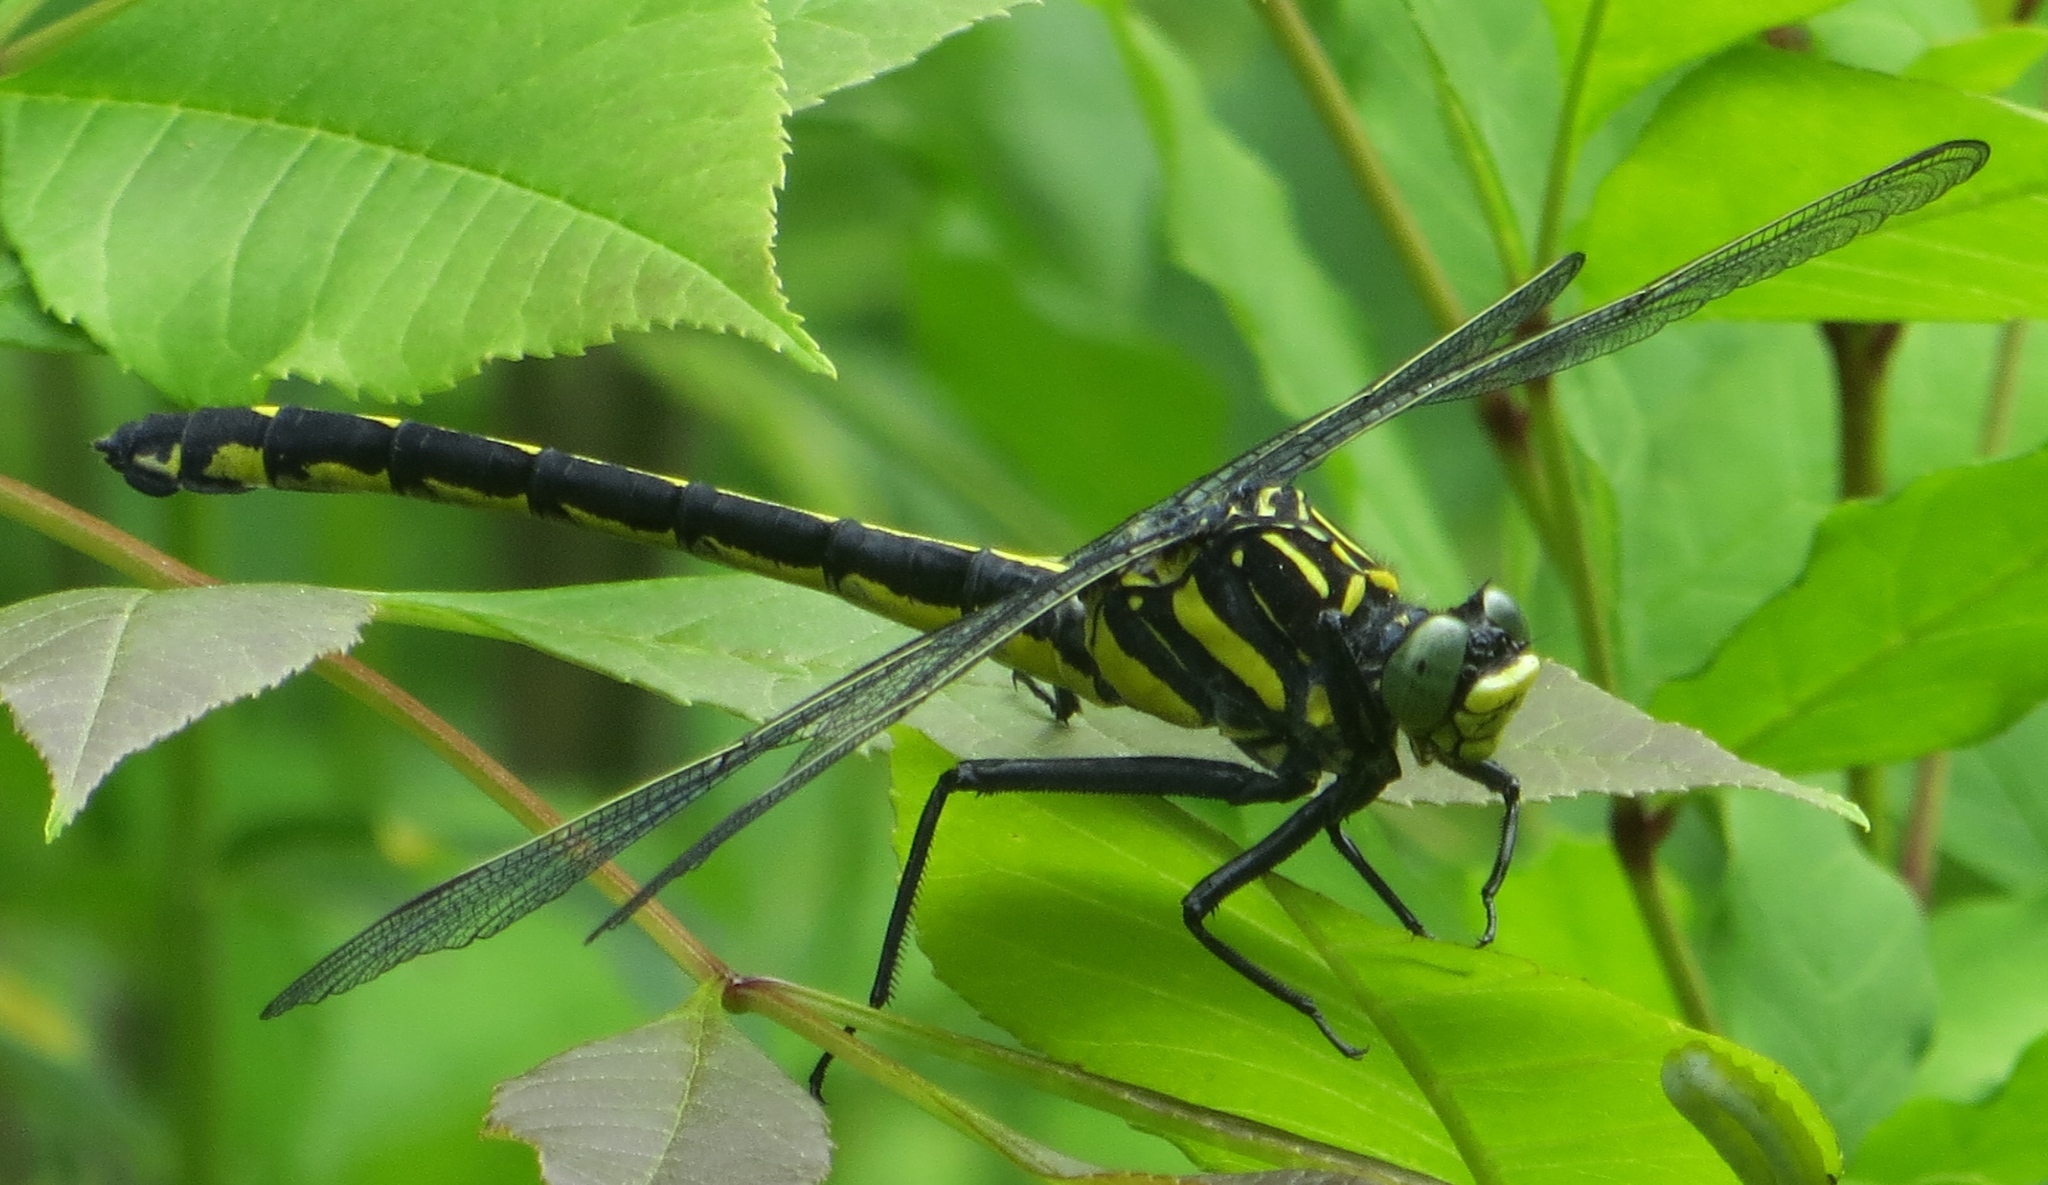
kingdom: Animalia
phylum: Arthropoda
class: Insecta
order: Odonata
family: Gomphidae
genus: Hagenius
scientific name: Hagenius brevistylus
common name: Dragonhunter
